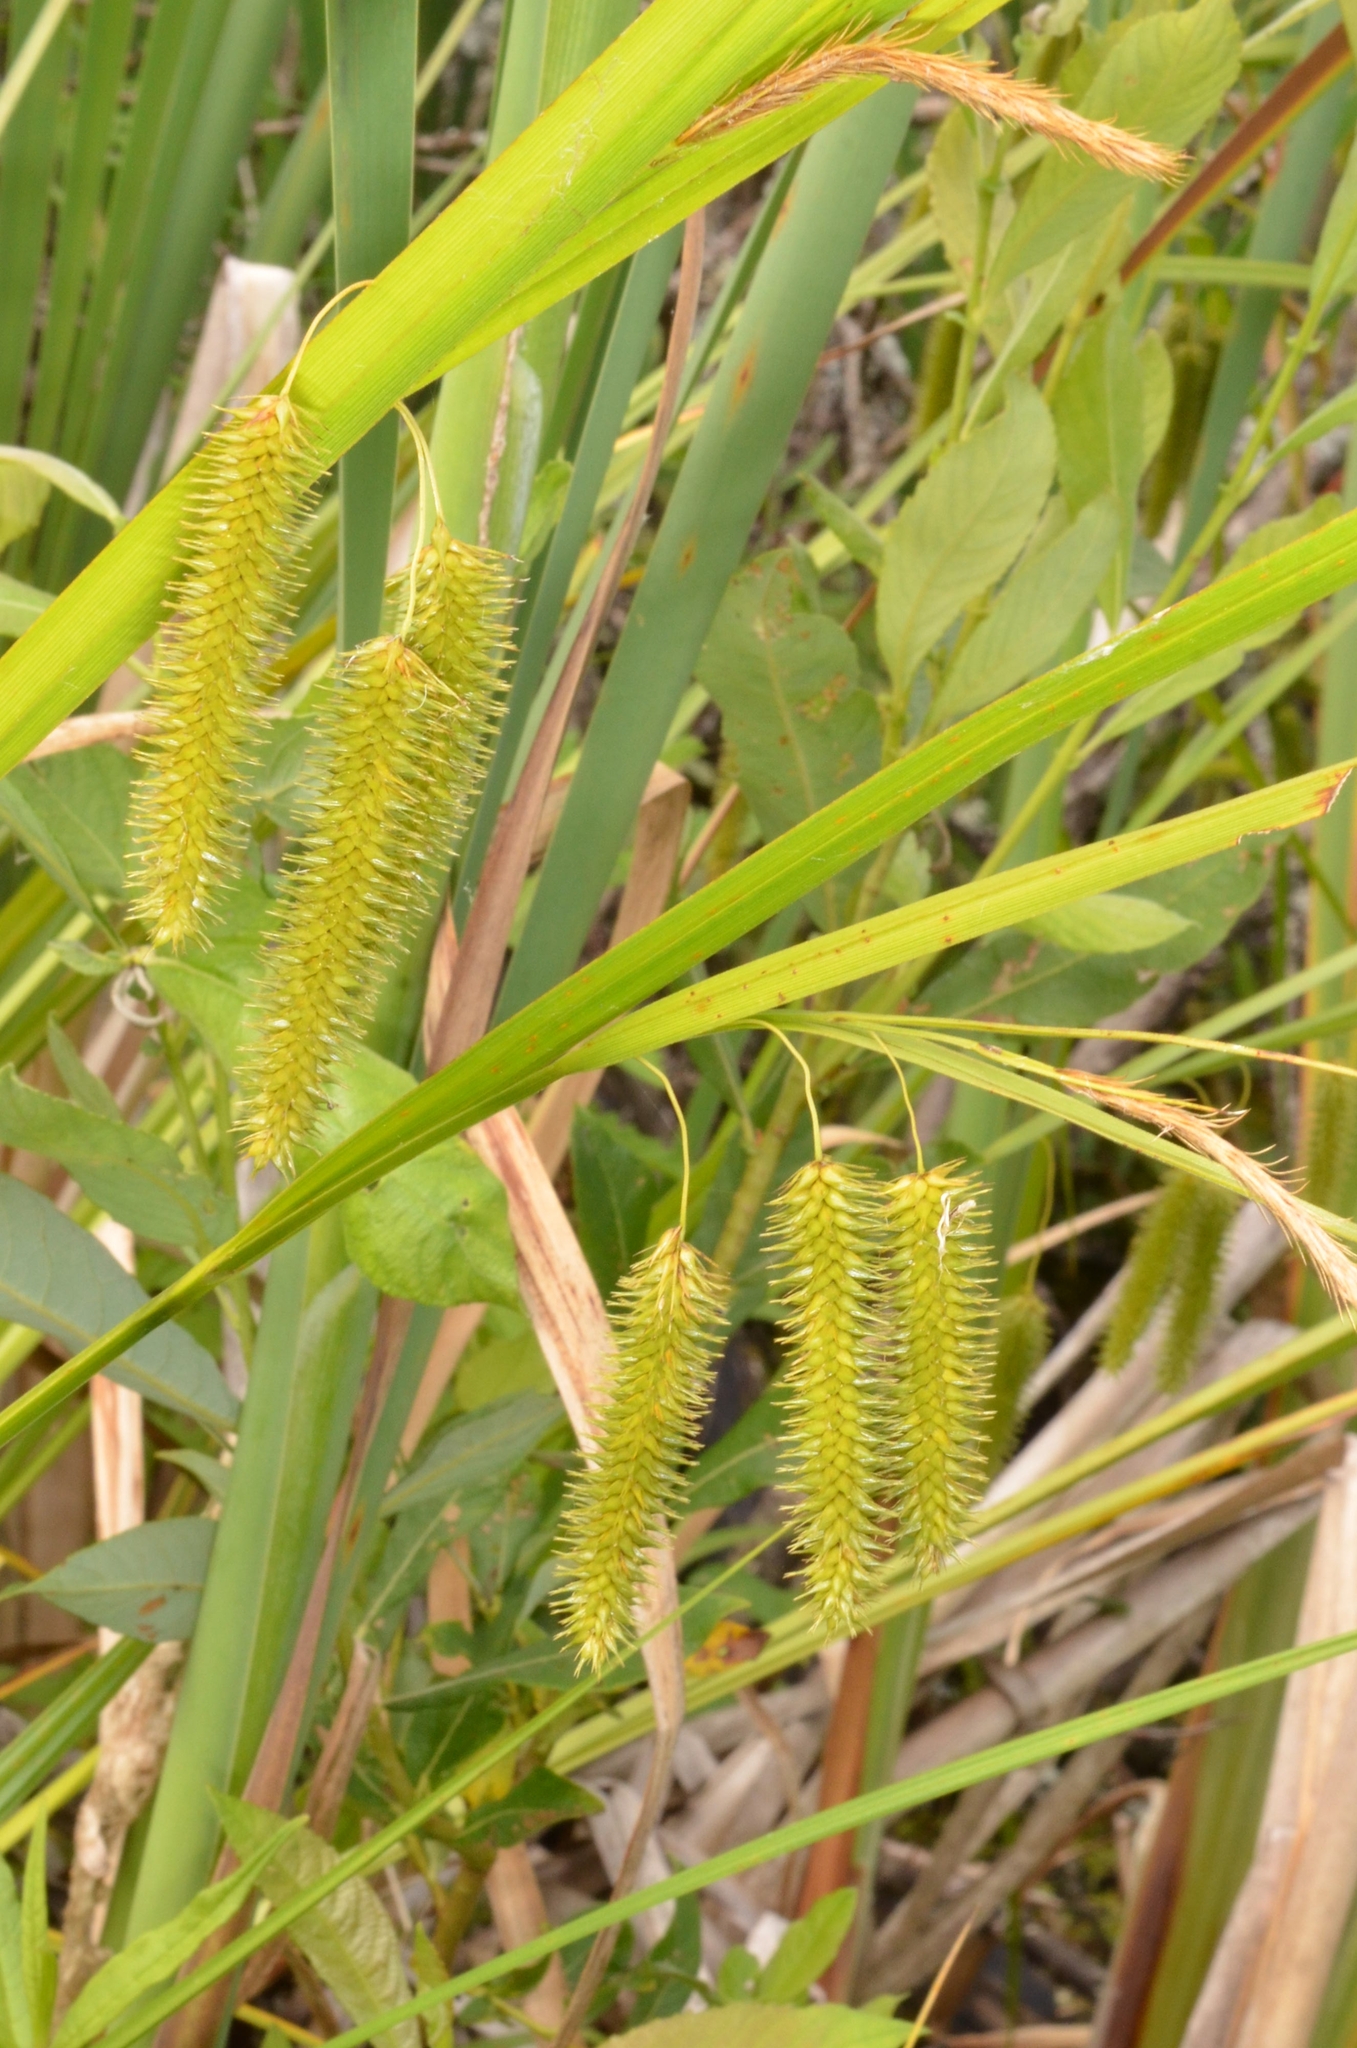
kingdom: Plantae
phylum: Tracheophyta
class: Liliopsida
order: Poales
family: Cyperaceae
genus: Carex
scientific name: Carex pseudocyperus
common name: Cyperus sedge
